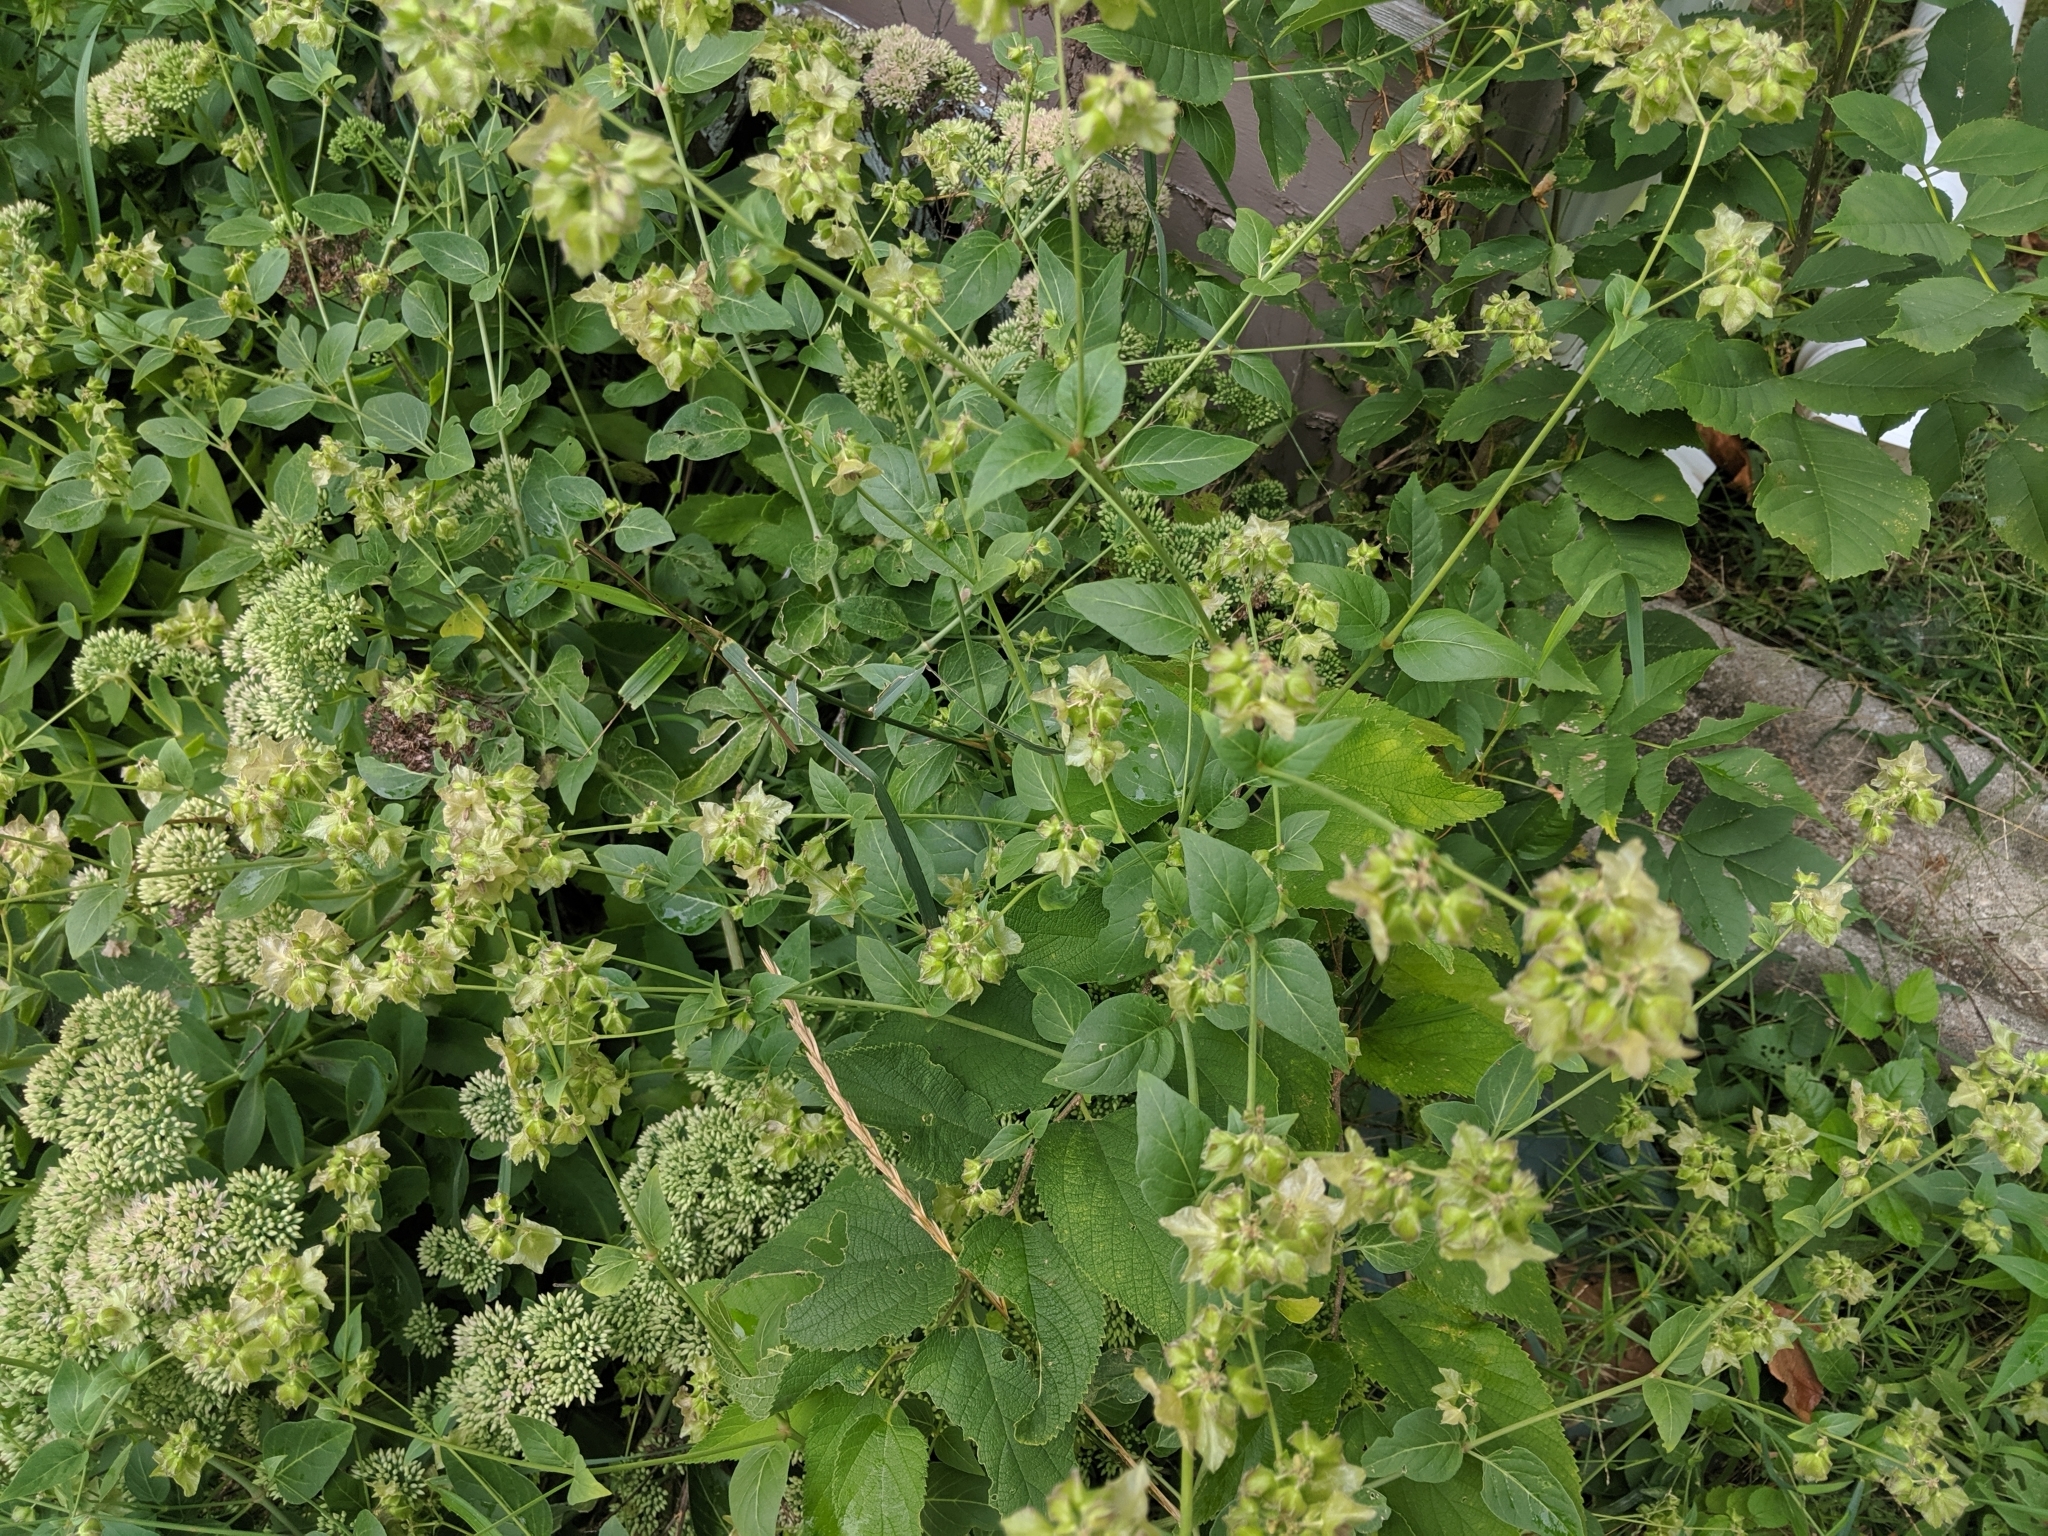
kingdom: Plantae
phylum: Tracheophyta
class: Magnoliopsida
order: Caryophyllales
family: Nyctaginaceae
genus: Mirabilis
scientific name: Mirabilis nyctaginea
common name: Umbrella wort
